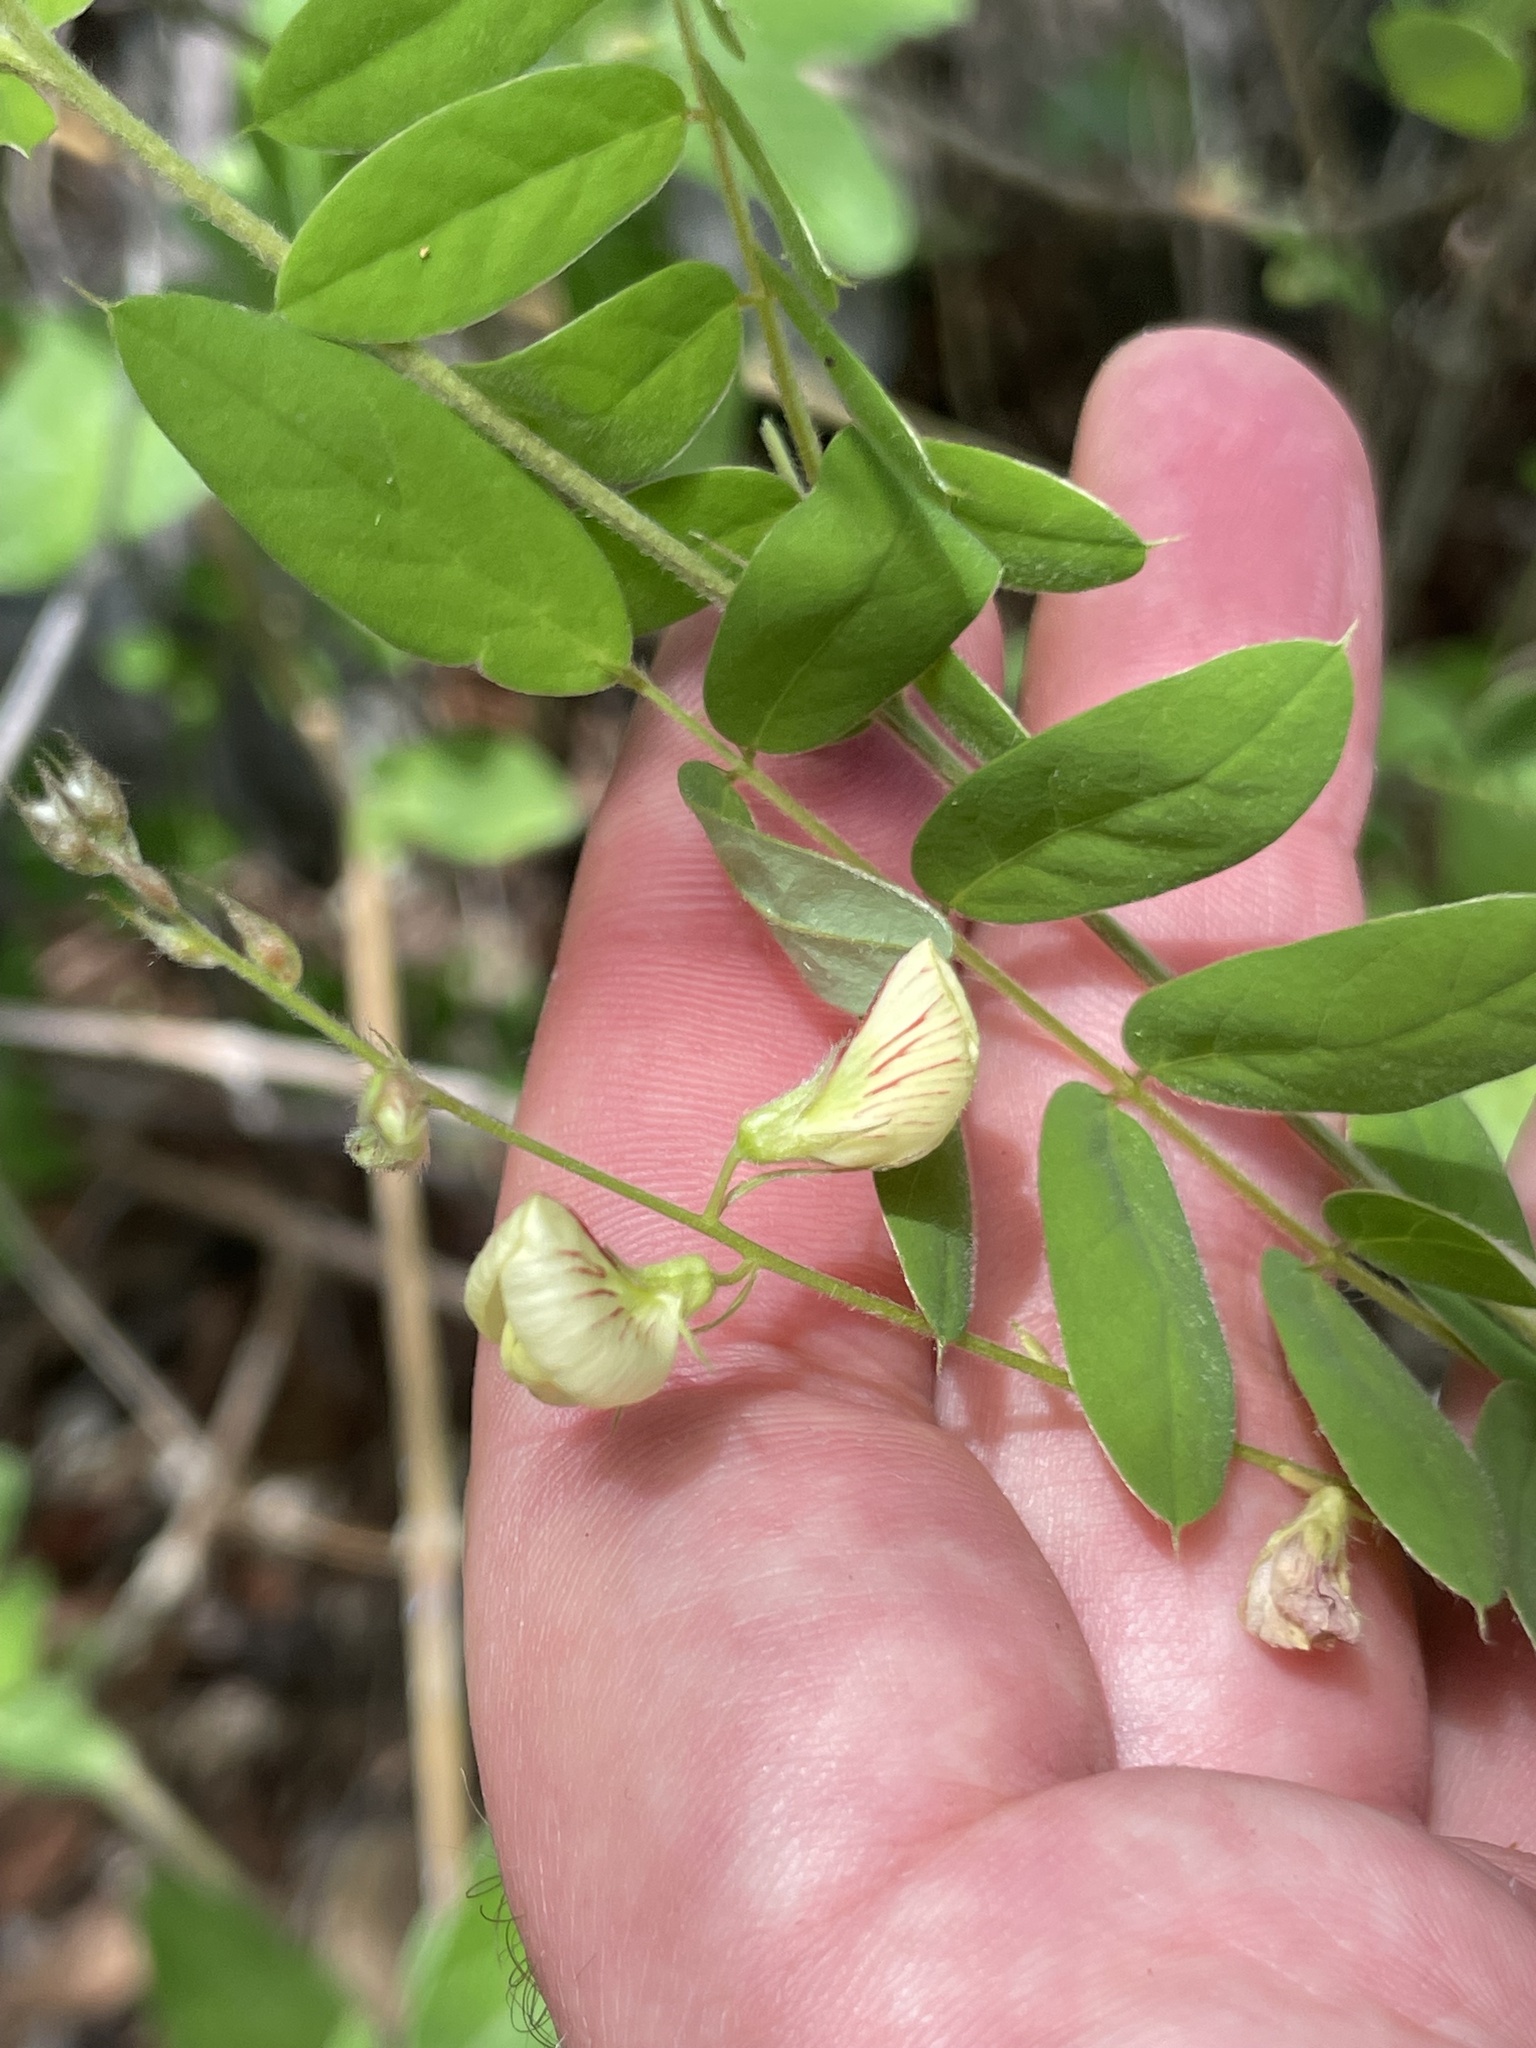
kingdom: Plantae
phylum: Tracheophyta
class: Magnoliopsida
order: Fabales
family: Fabaceae
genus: Coursetia
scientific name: Coursetia caribaea
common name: Anil falso
